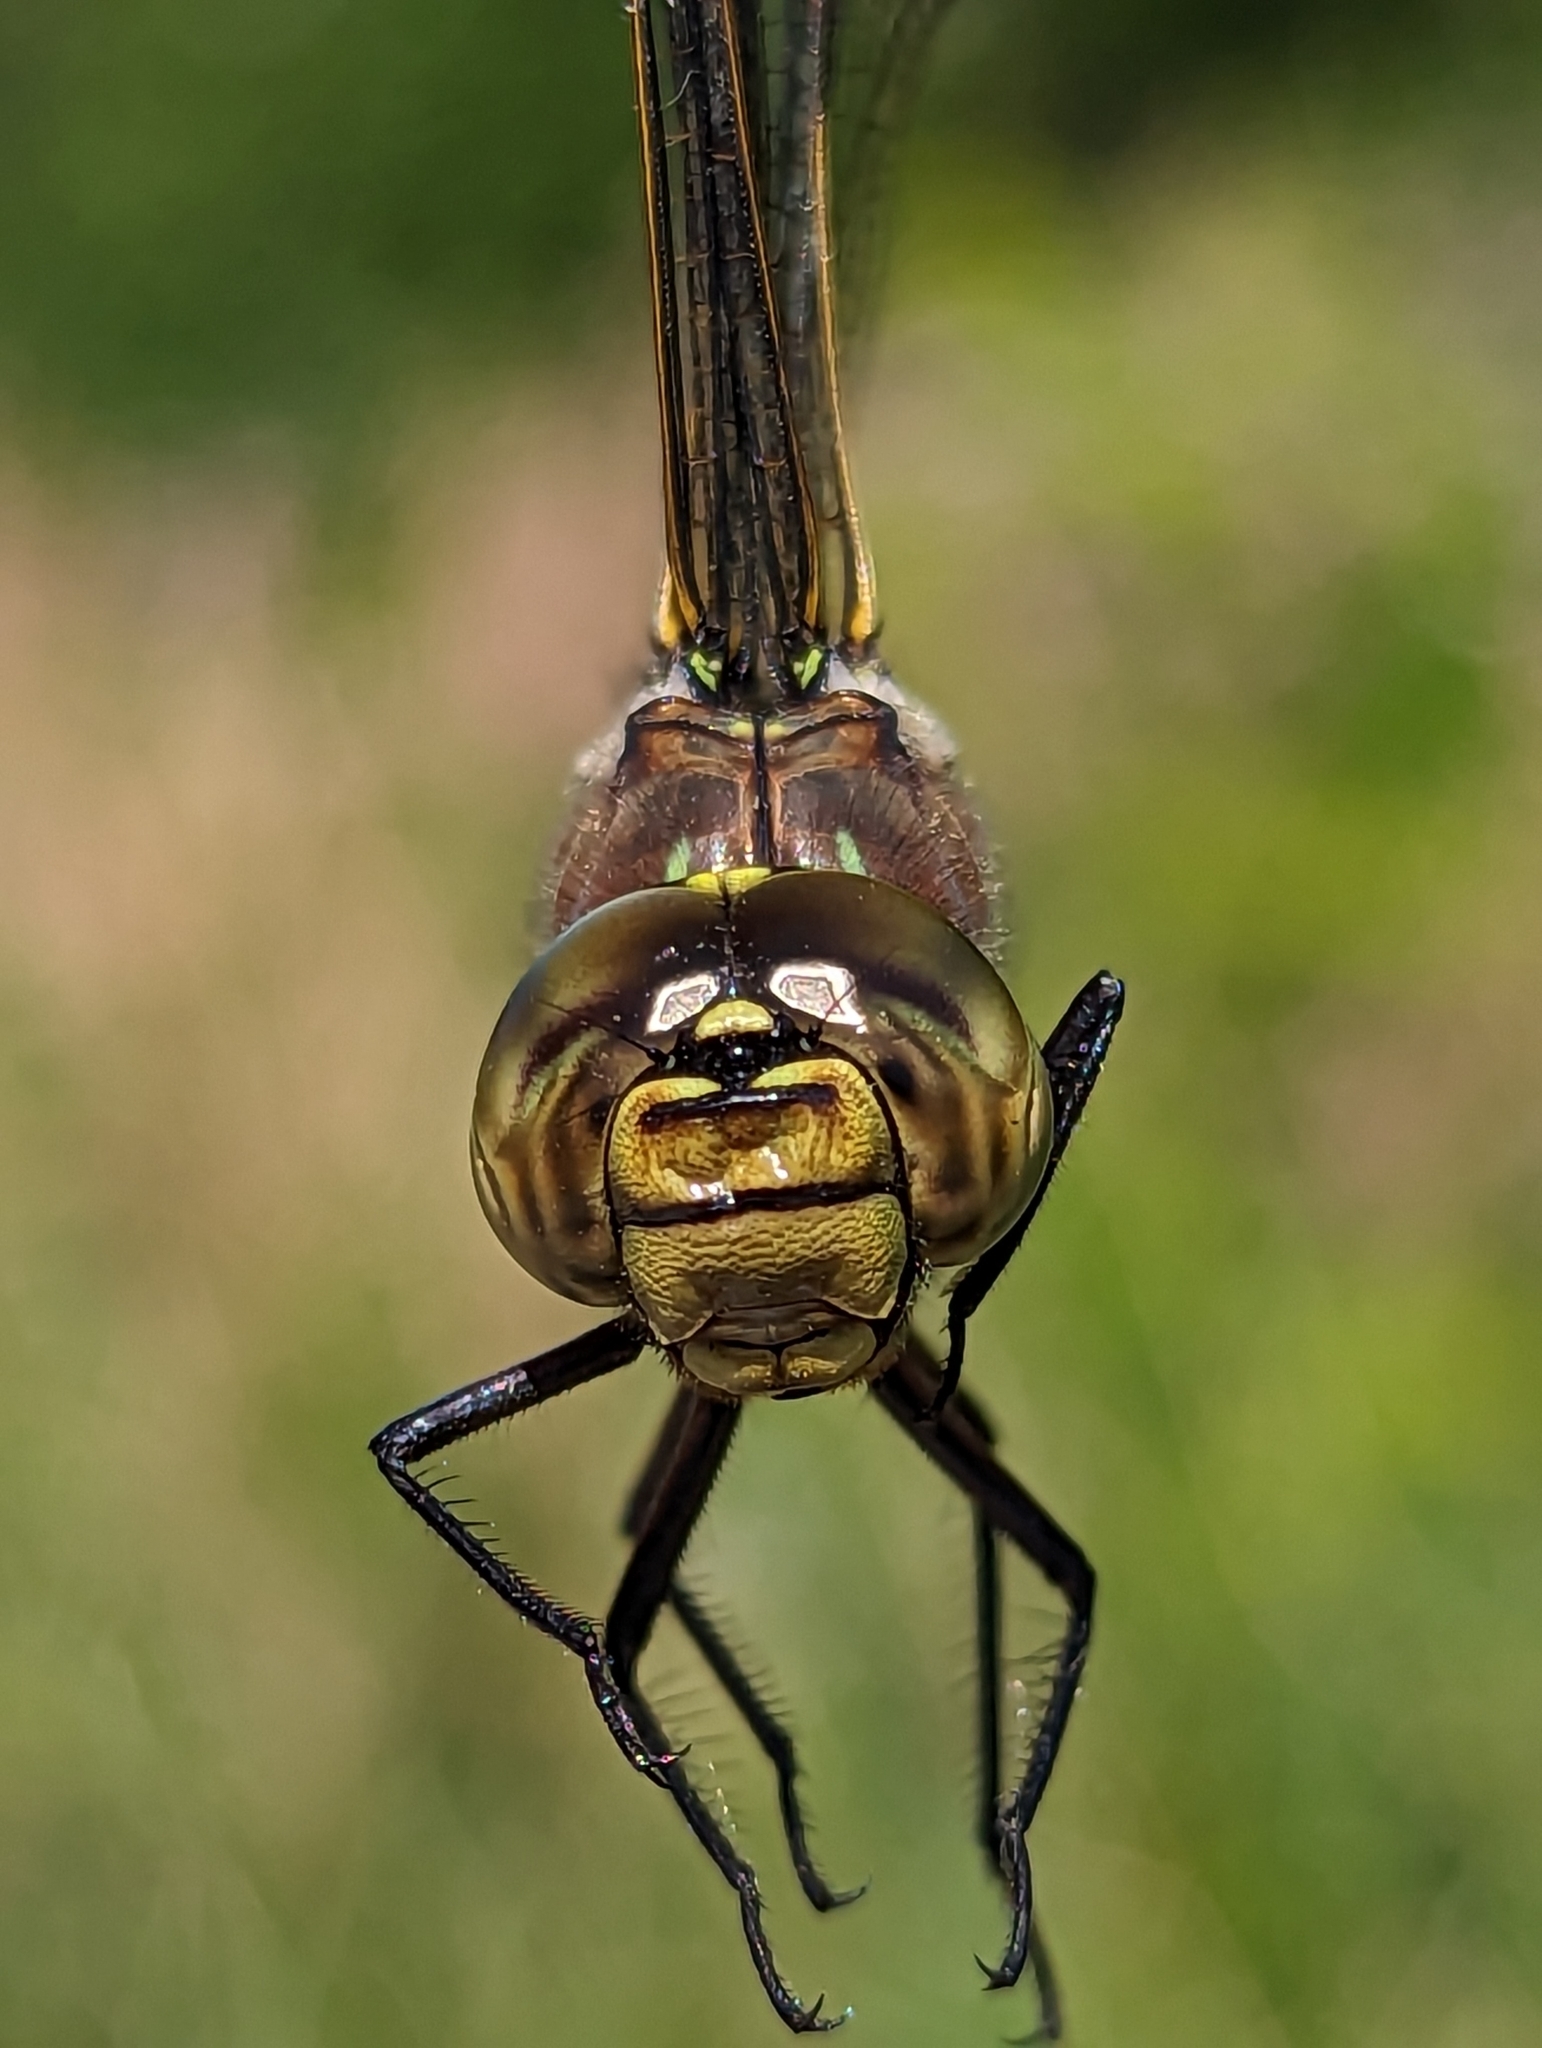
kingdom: Animalia
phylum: Arthropoda
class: Insecta
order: Odonata
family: Aeshnidae
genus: Aeshna
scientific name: Aeshna interrupta
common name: Variable darner
